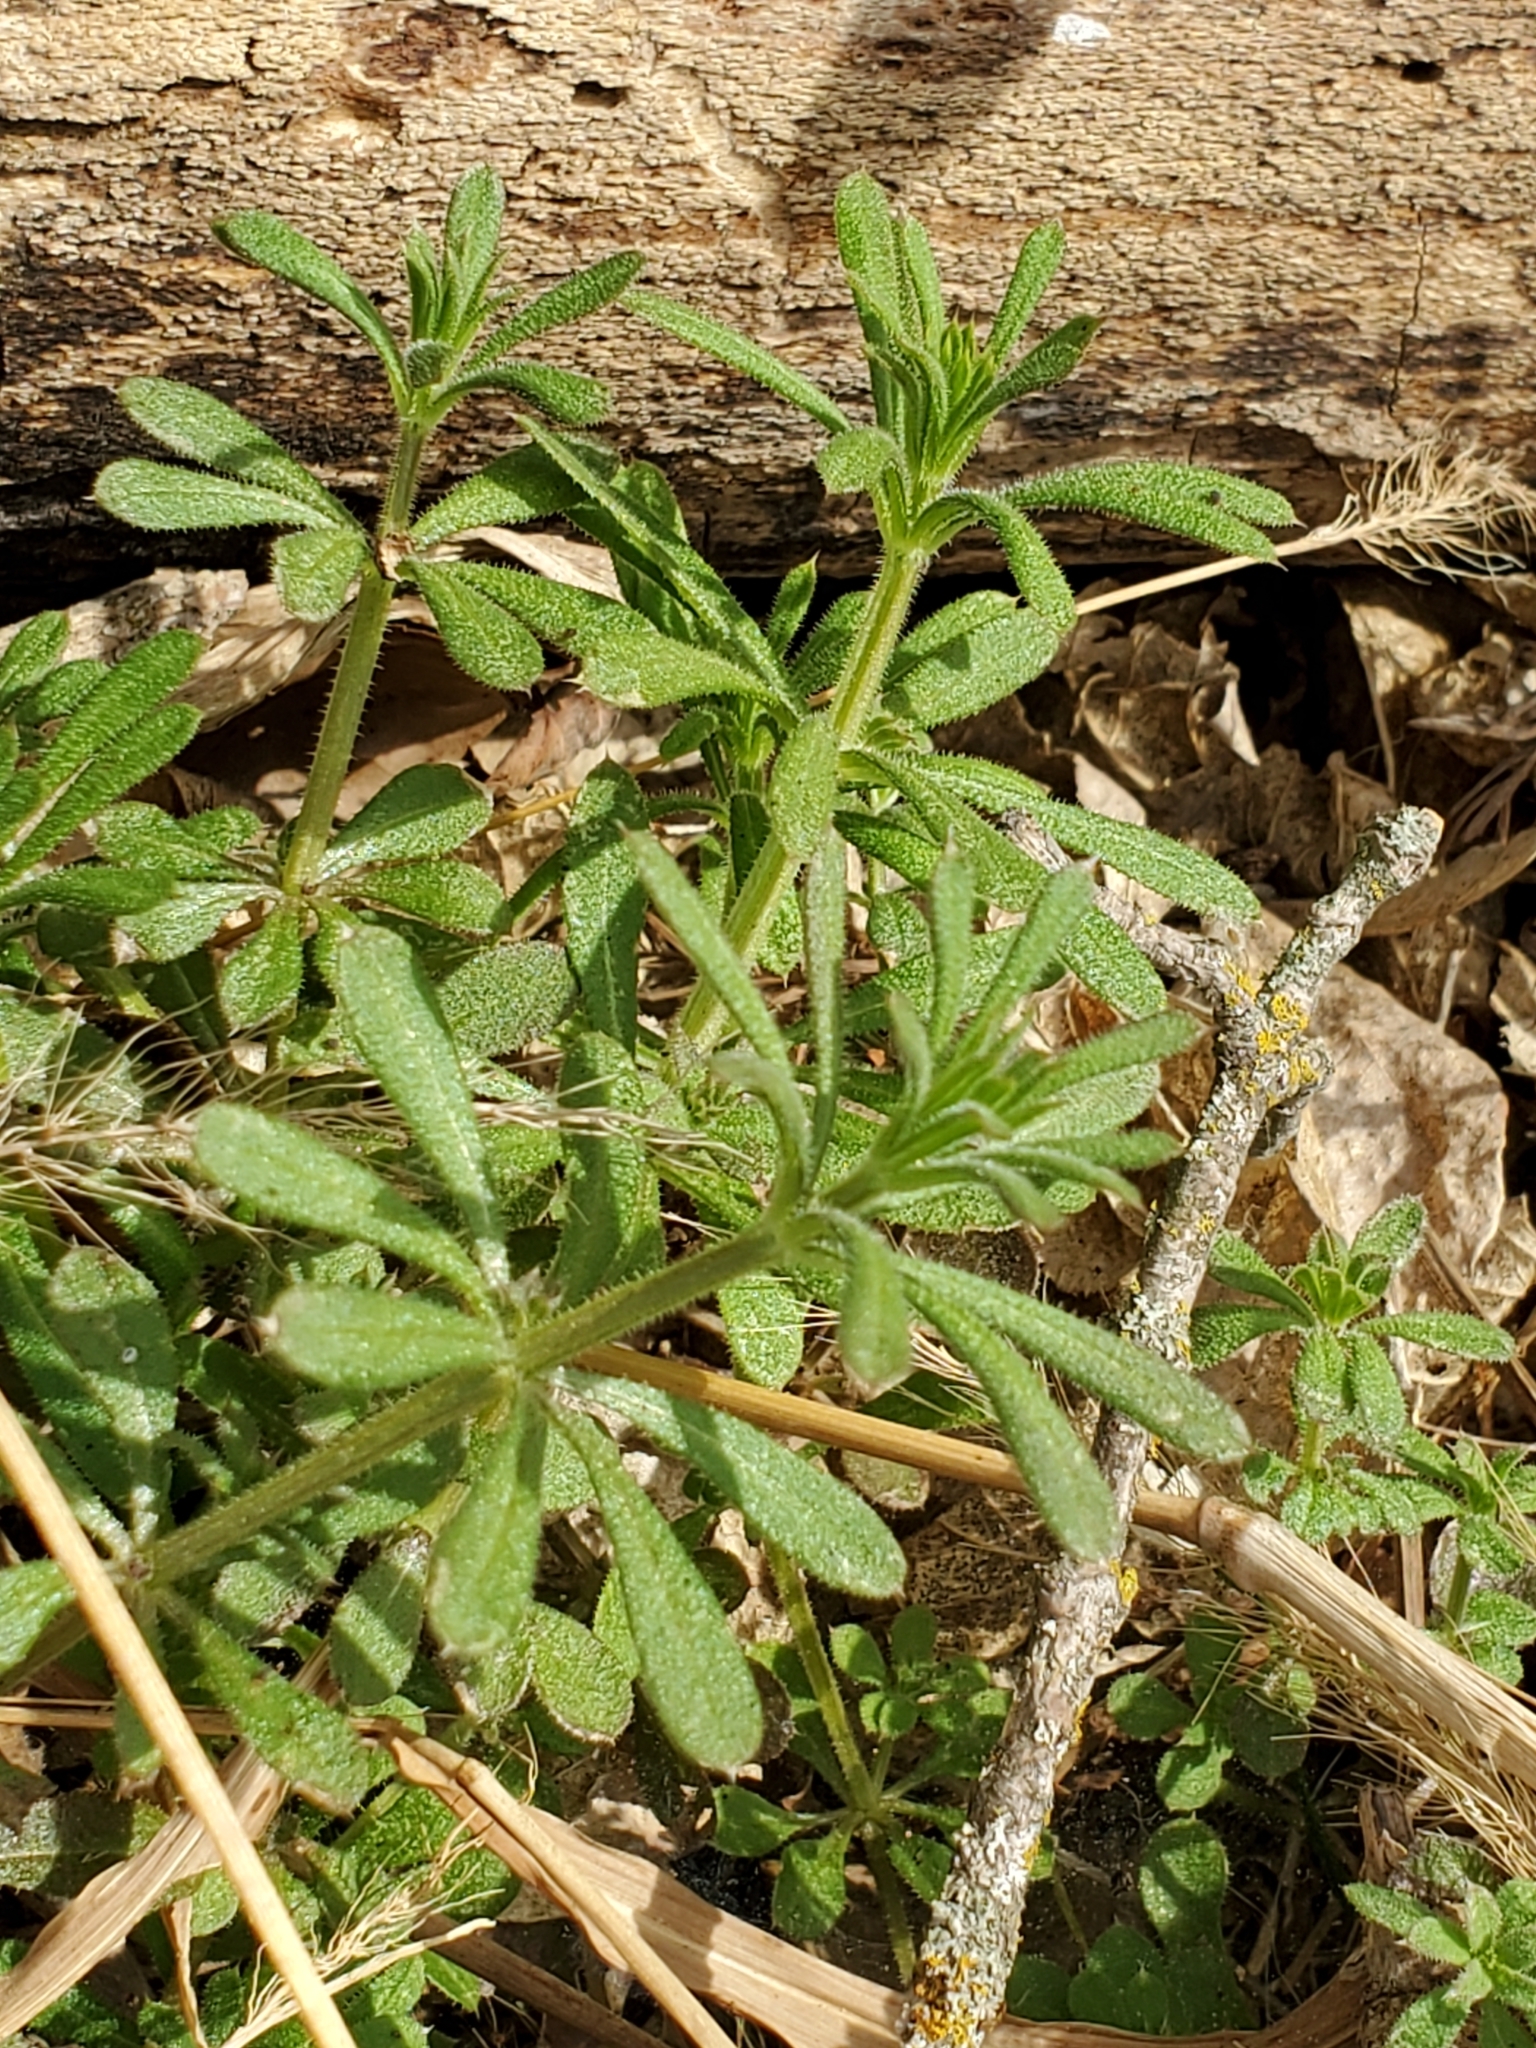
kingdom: Plantae
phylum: Tracheophyta
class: Magnoliopsida
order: Gentianales
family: Rubiaceae
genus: Galium
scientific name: Galium aparine
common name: Cleavers
